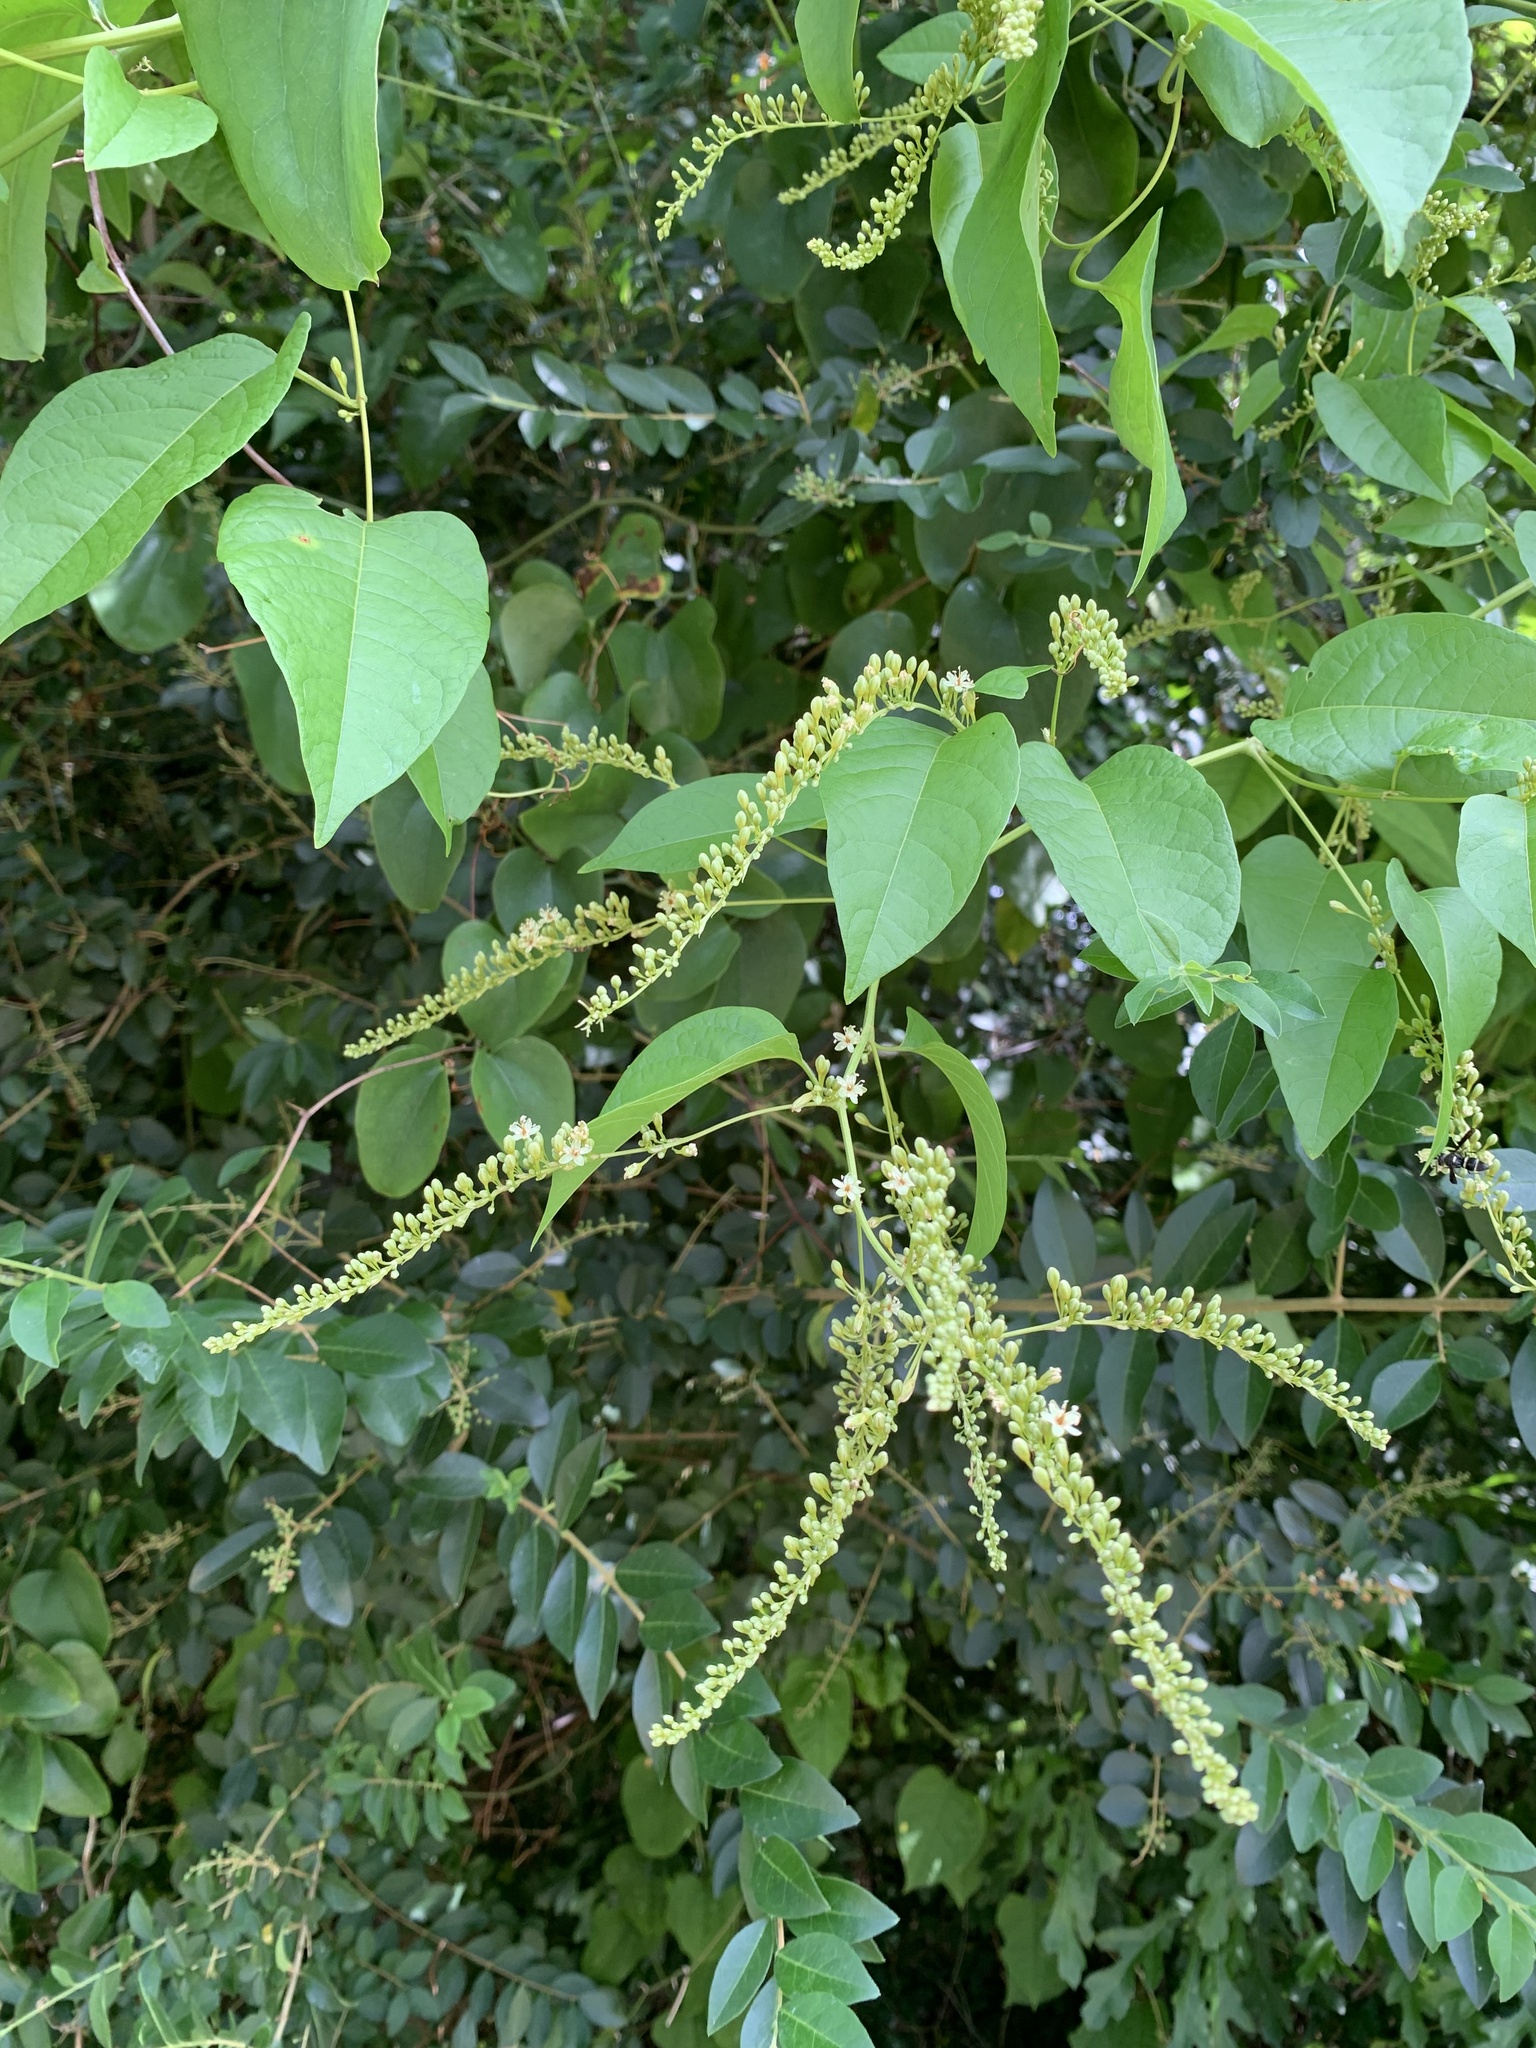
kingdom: Plantae
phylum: Tracheophyta
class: Magnoliopsida
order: Caryophyllales
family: Polygonaceae
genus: Brunnichia
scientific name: Brunnichia ovata
